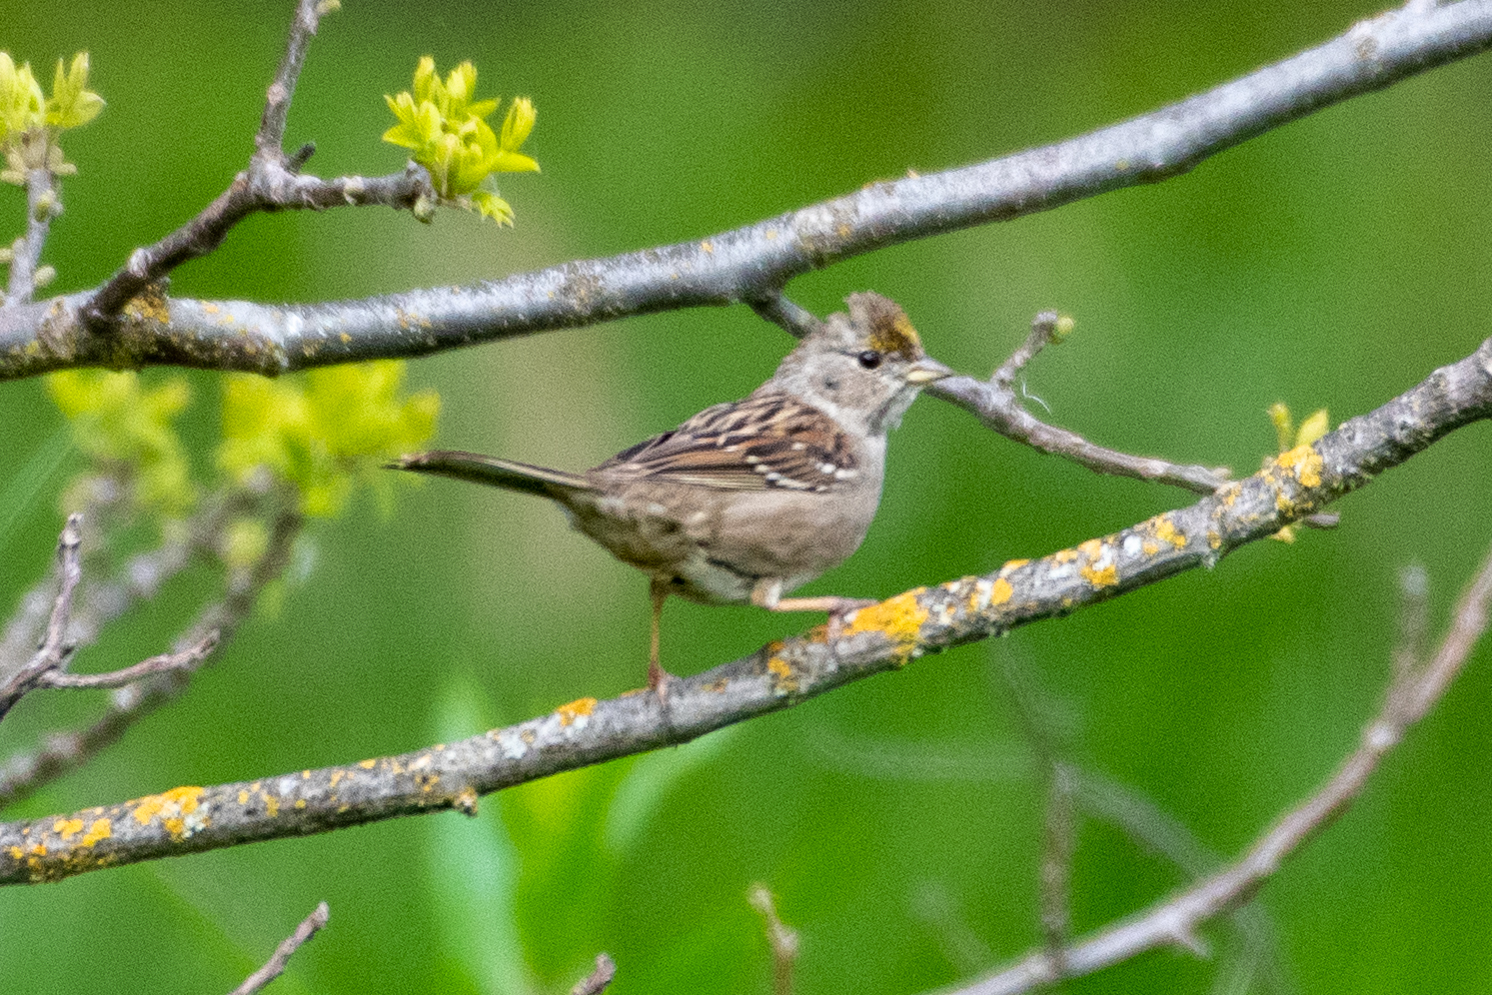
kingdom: Animalia
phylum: Chordata
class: Aves
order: Passeriformes
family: Passerellidae
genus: Zonotrichia
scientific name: Zonotrichia atricapilla
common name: Golden-crowned sparrow
